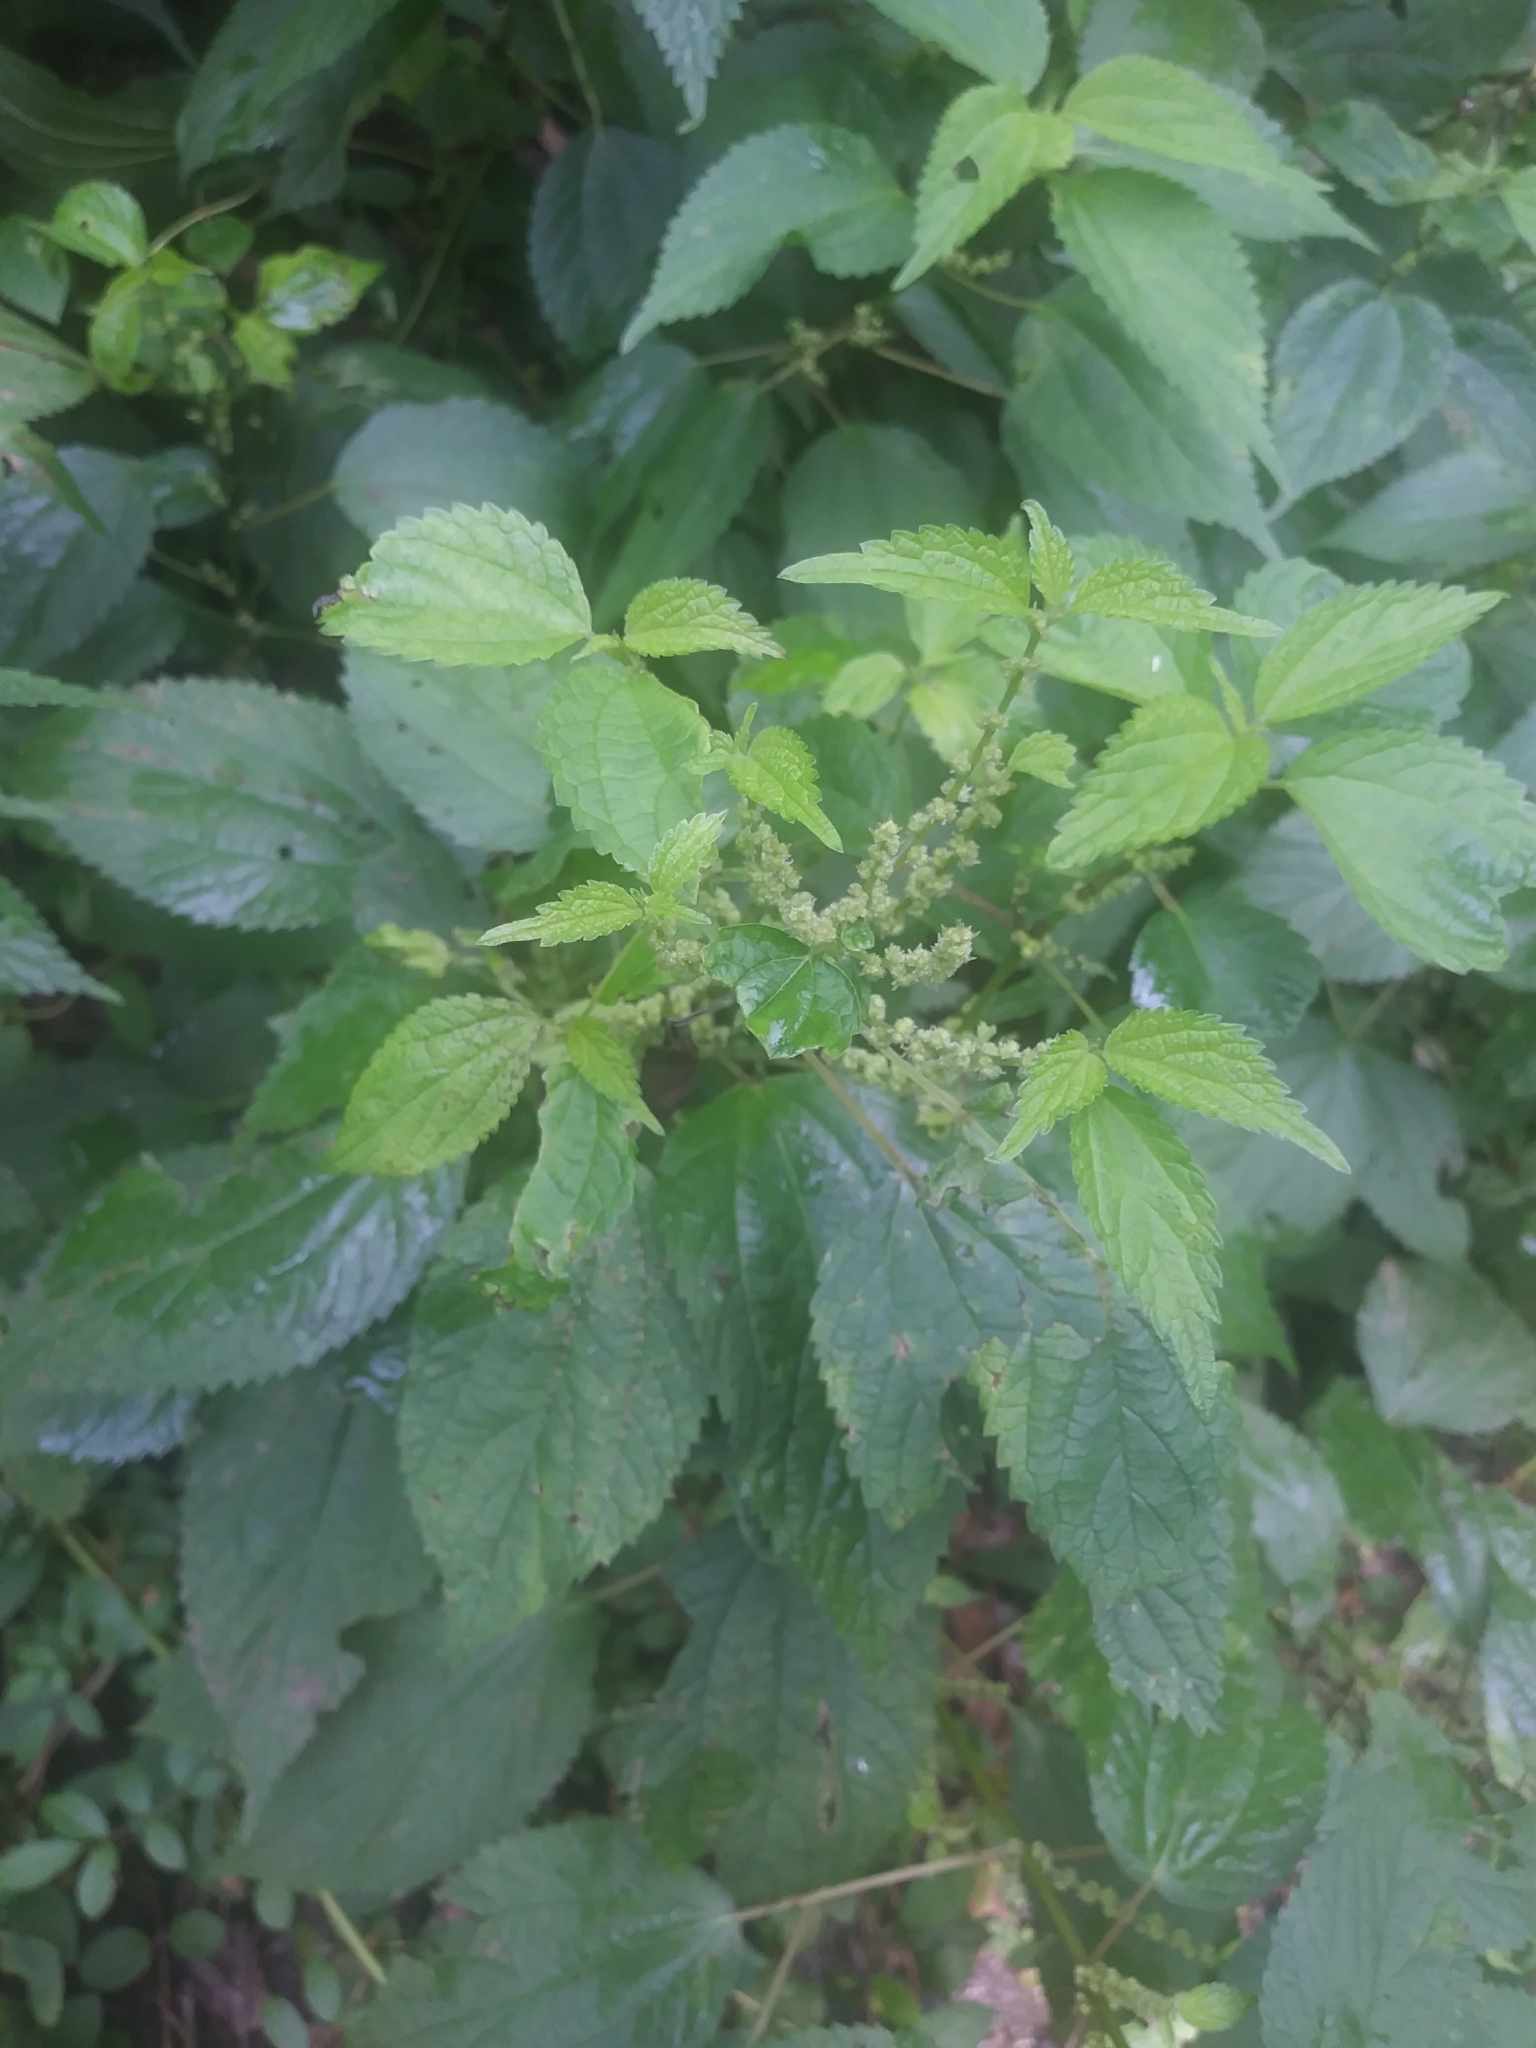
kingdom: Plantae
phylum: Tracheophyta
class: Magnoliopsida
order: Rosales
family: Urticaceae
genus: Boehmeria
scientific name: Boehmeria cylindrica
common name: Bog-hemp
